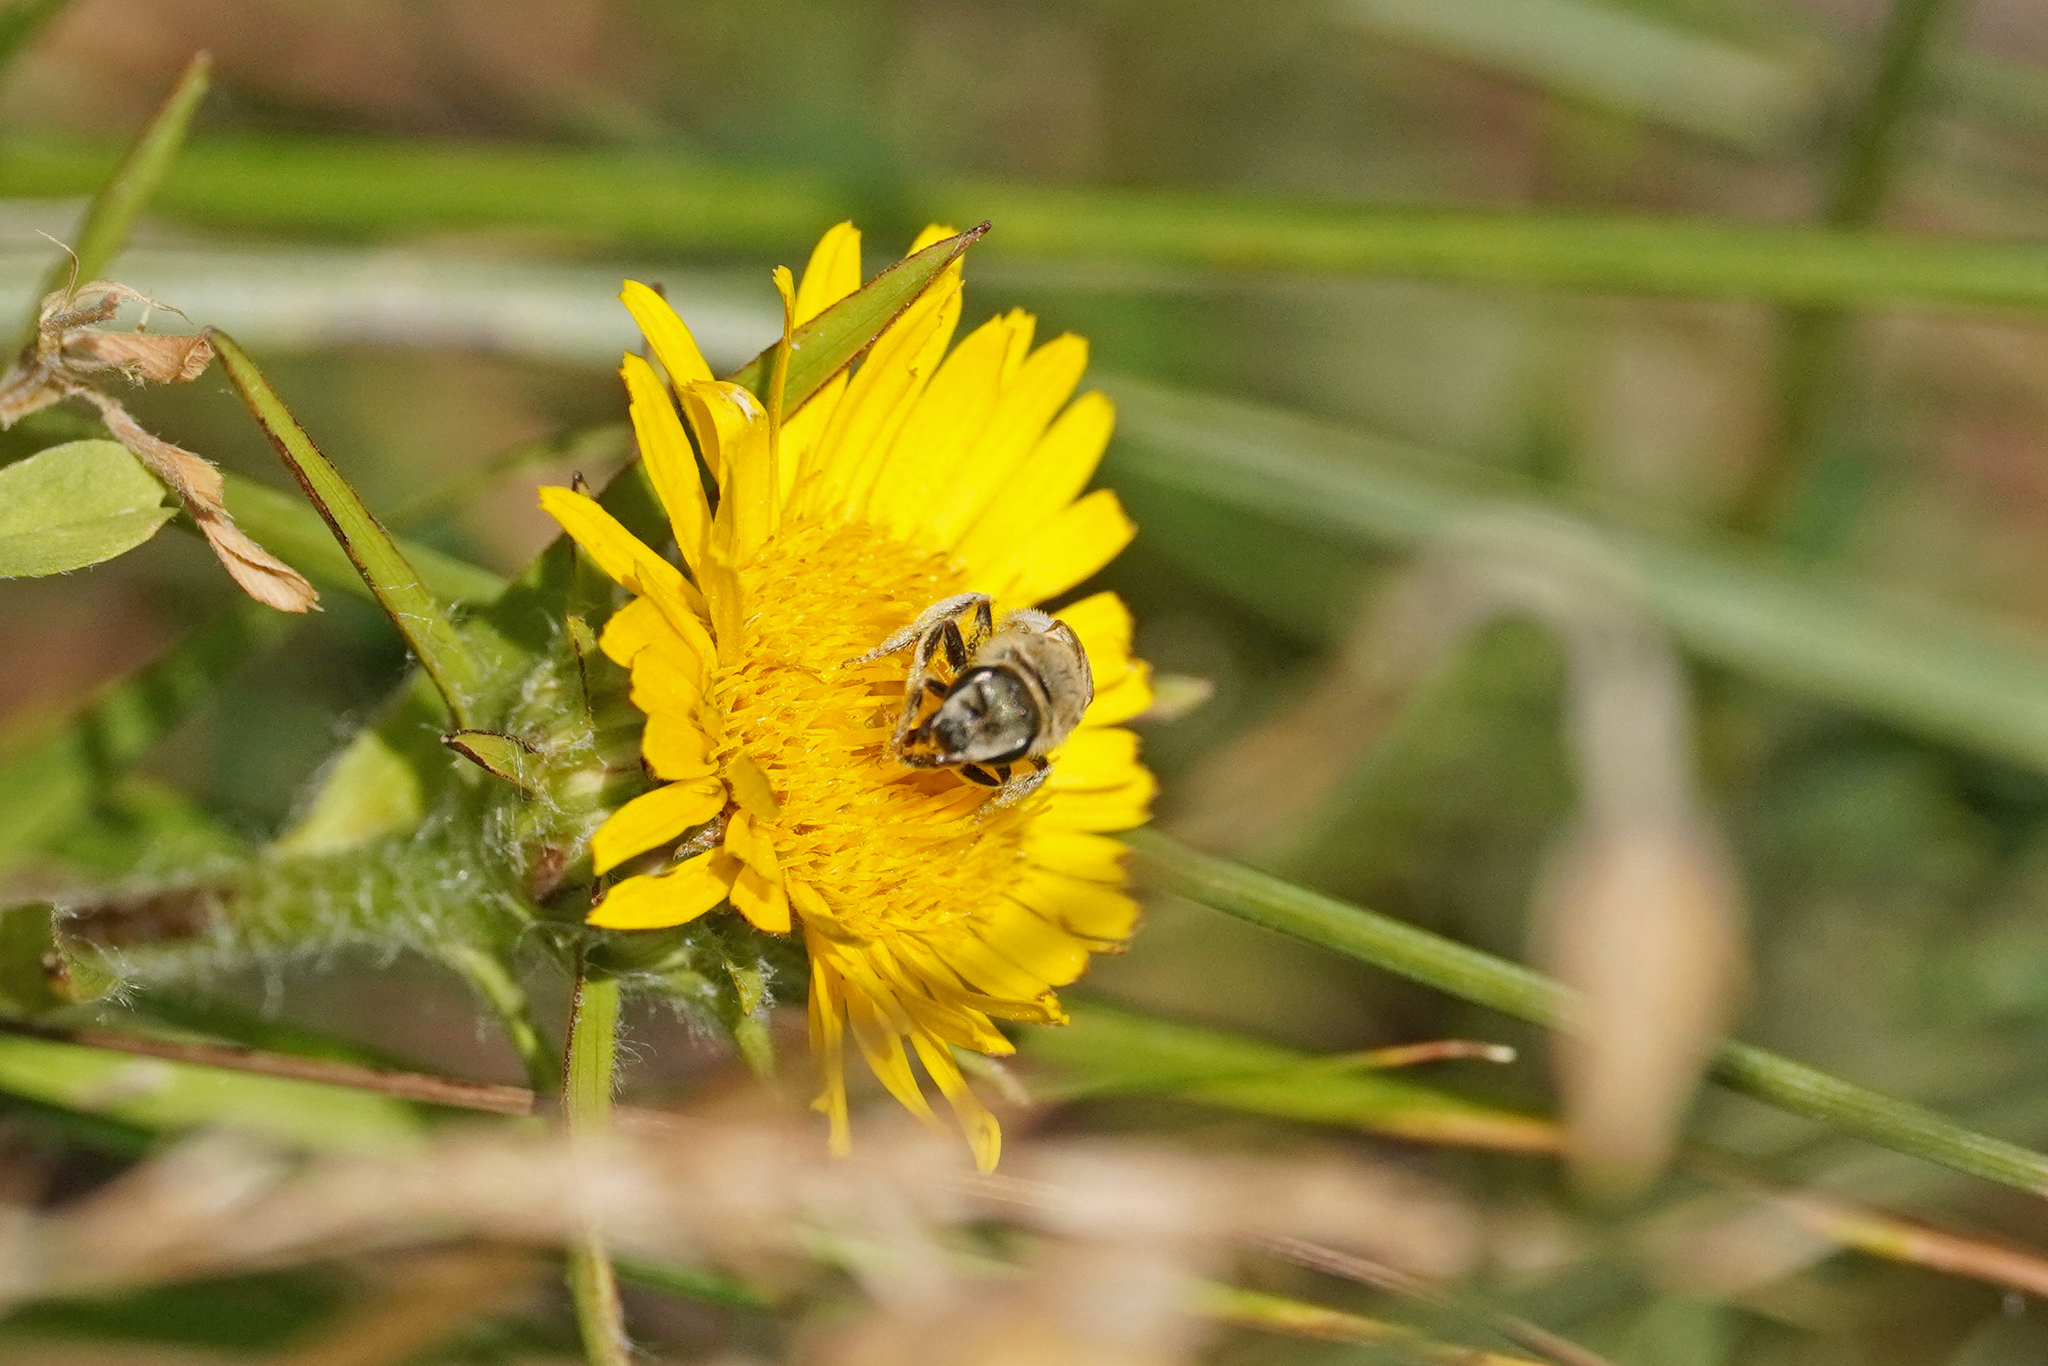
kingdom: Animalia
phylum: Arthropoda
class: Insecta
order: Hymenoptera
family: Halictidae
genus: Halictus
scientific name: Halictus pollinosus
